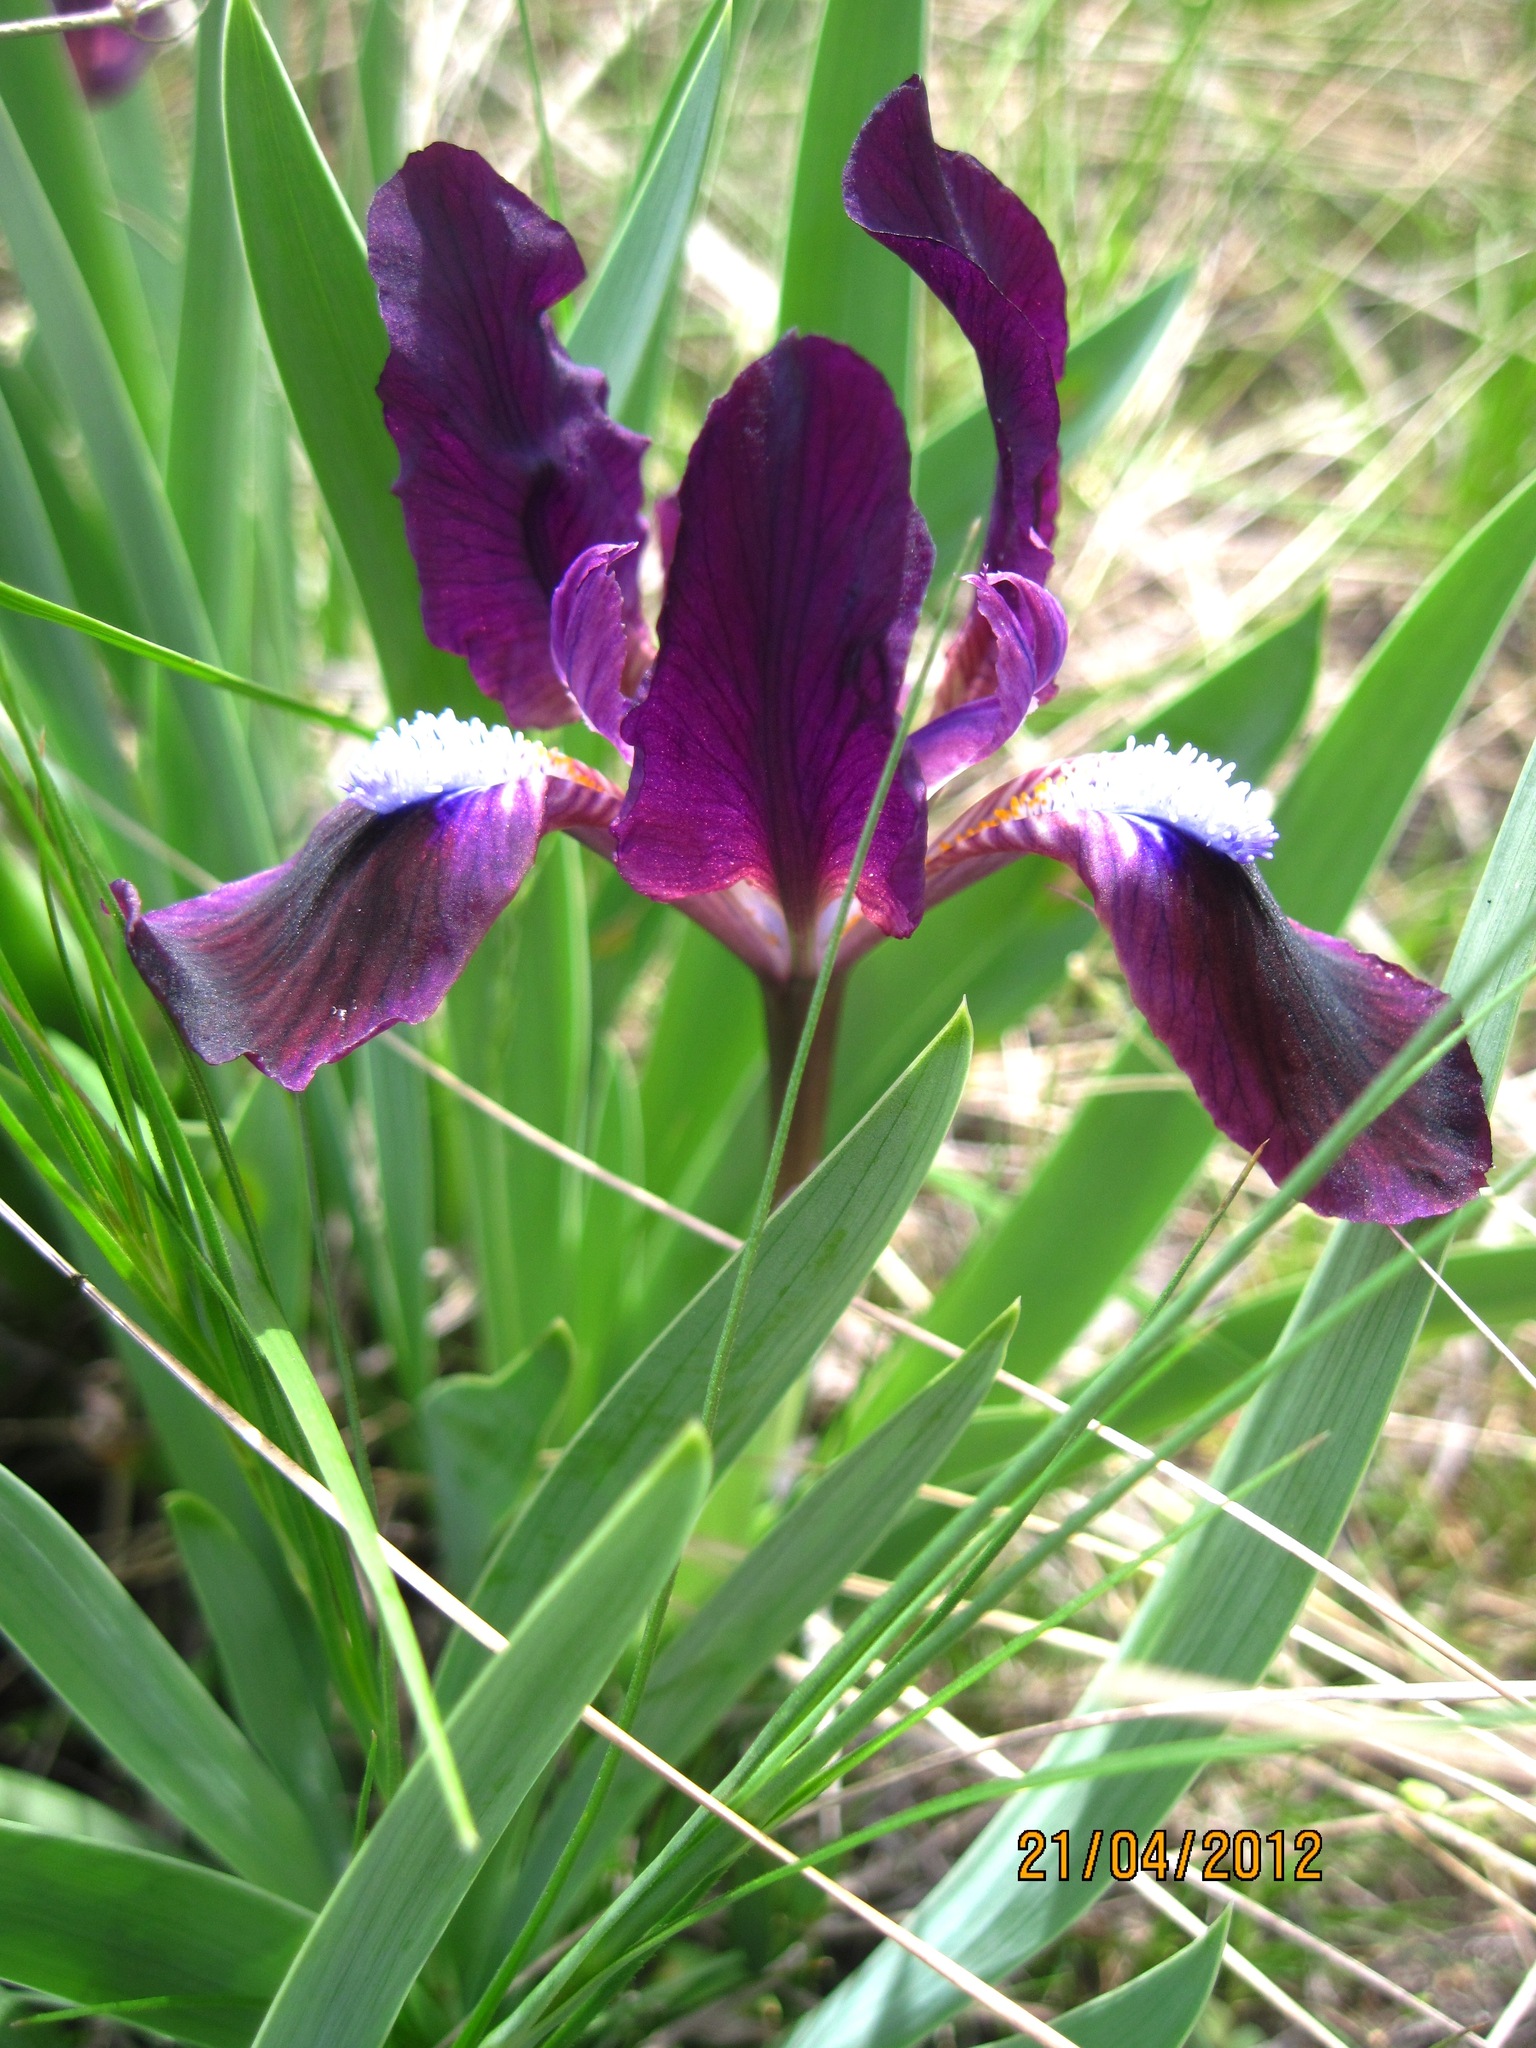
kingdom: Plantae
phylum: Tracheophyta
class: Liliopsida
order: Asparagales
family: Iridaceae
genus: Iris
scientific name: Iris pumila
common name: Dwarf iris
